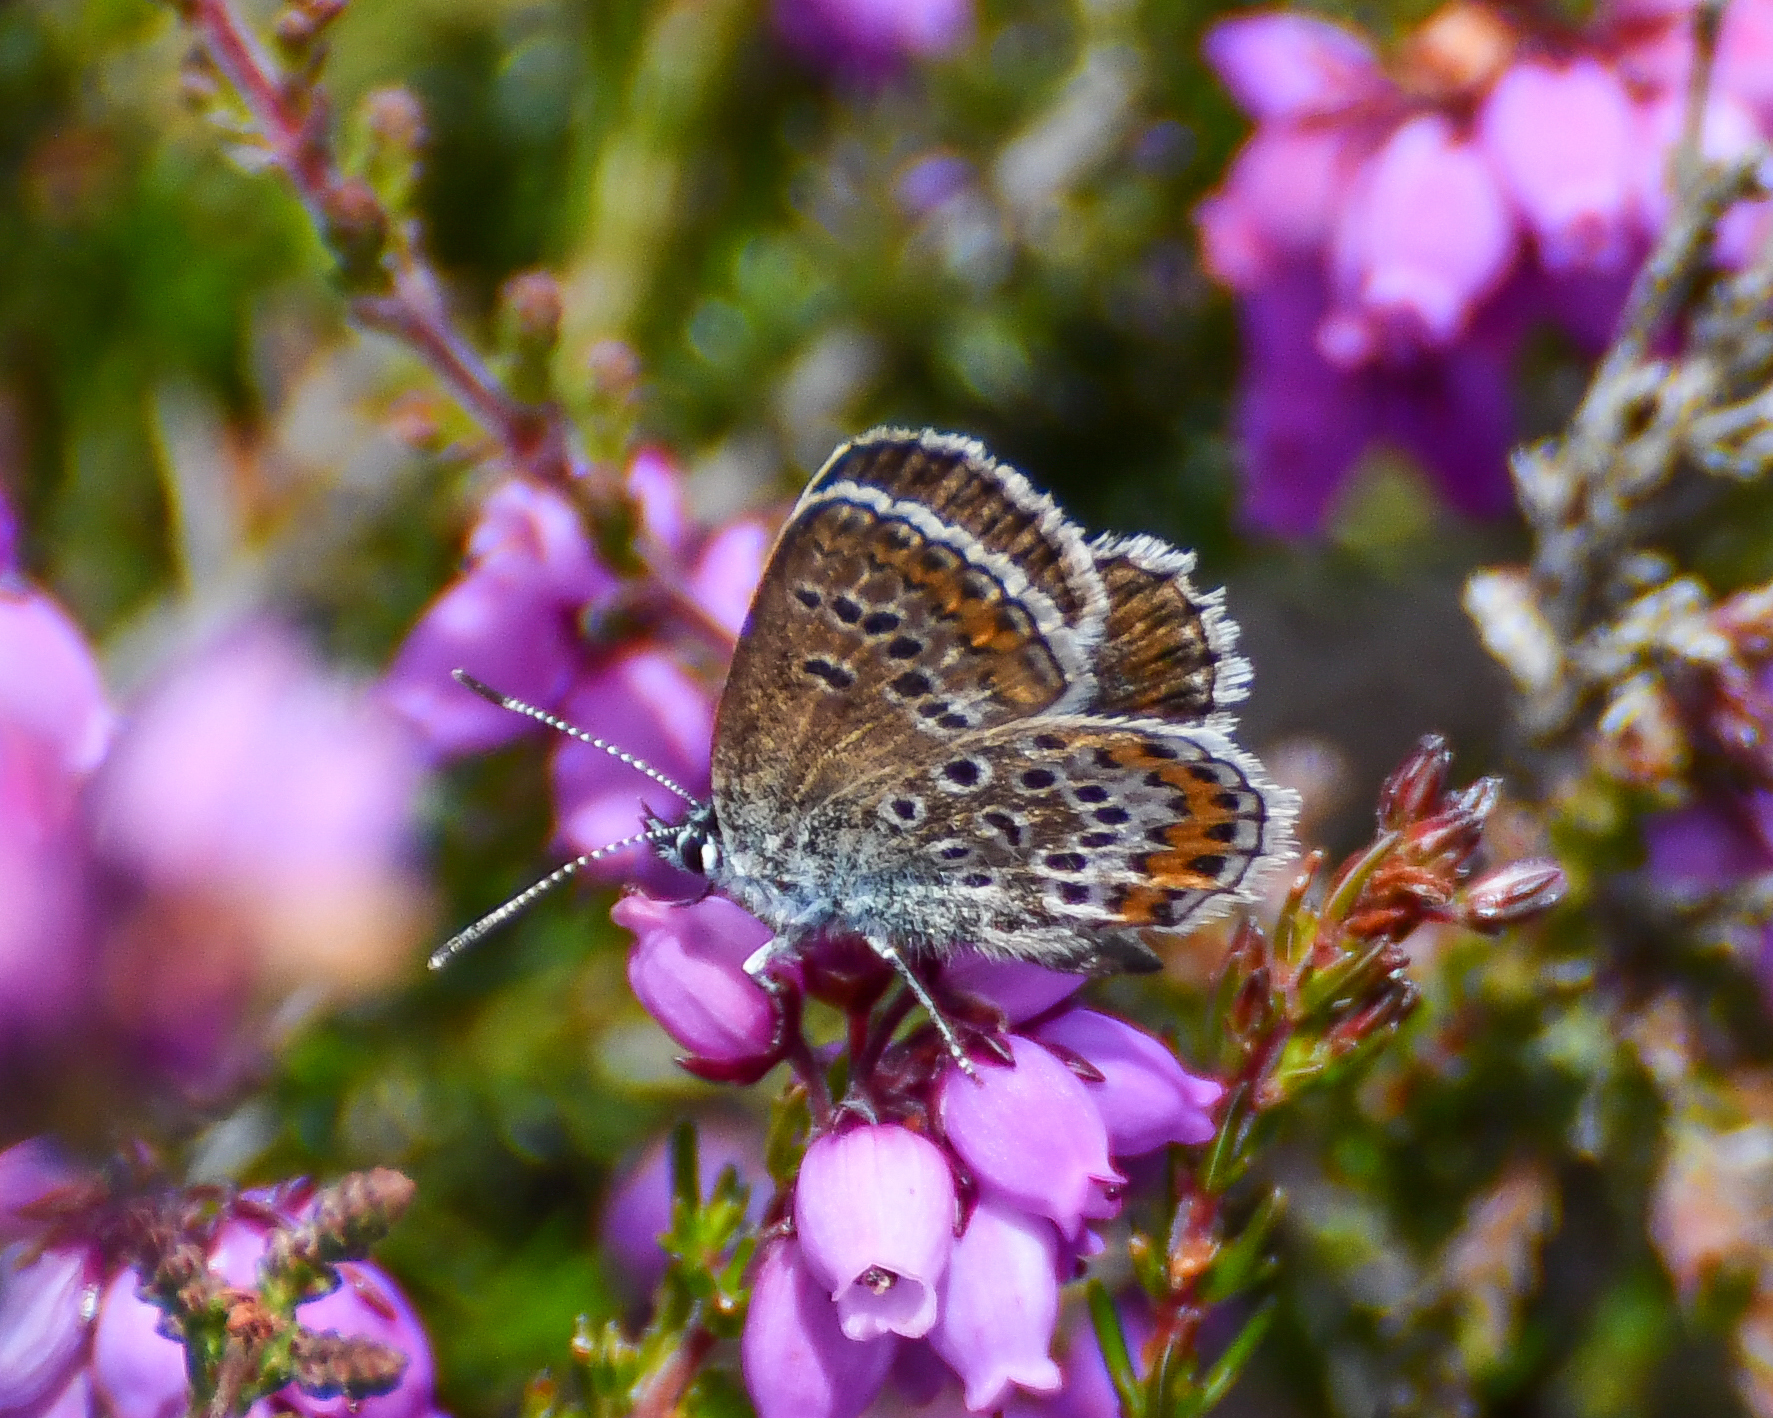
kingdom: Animalia
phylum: Arthropoda
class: Insecta
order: Lepidoptera
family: Lycaenidae
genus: Plebejus
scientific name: Plebejus argus
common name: Silver-studded blue
